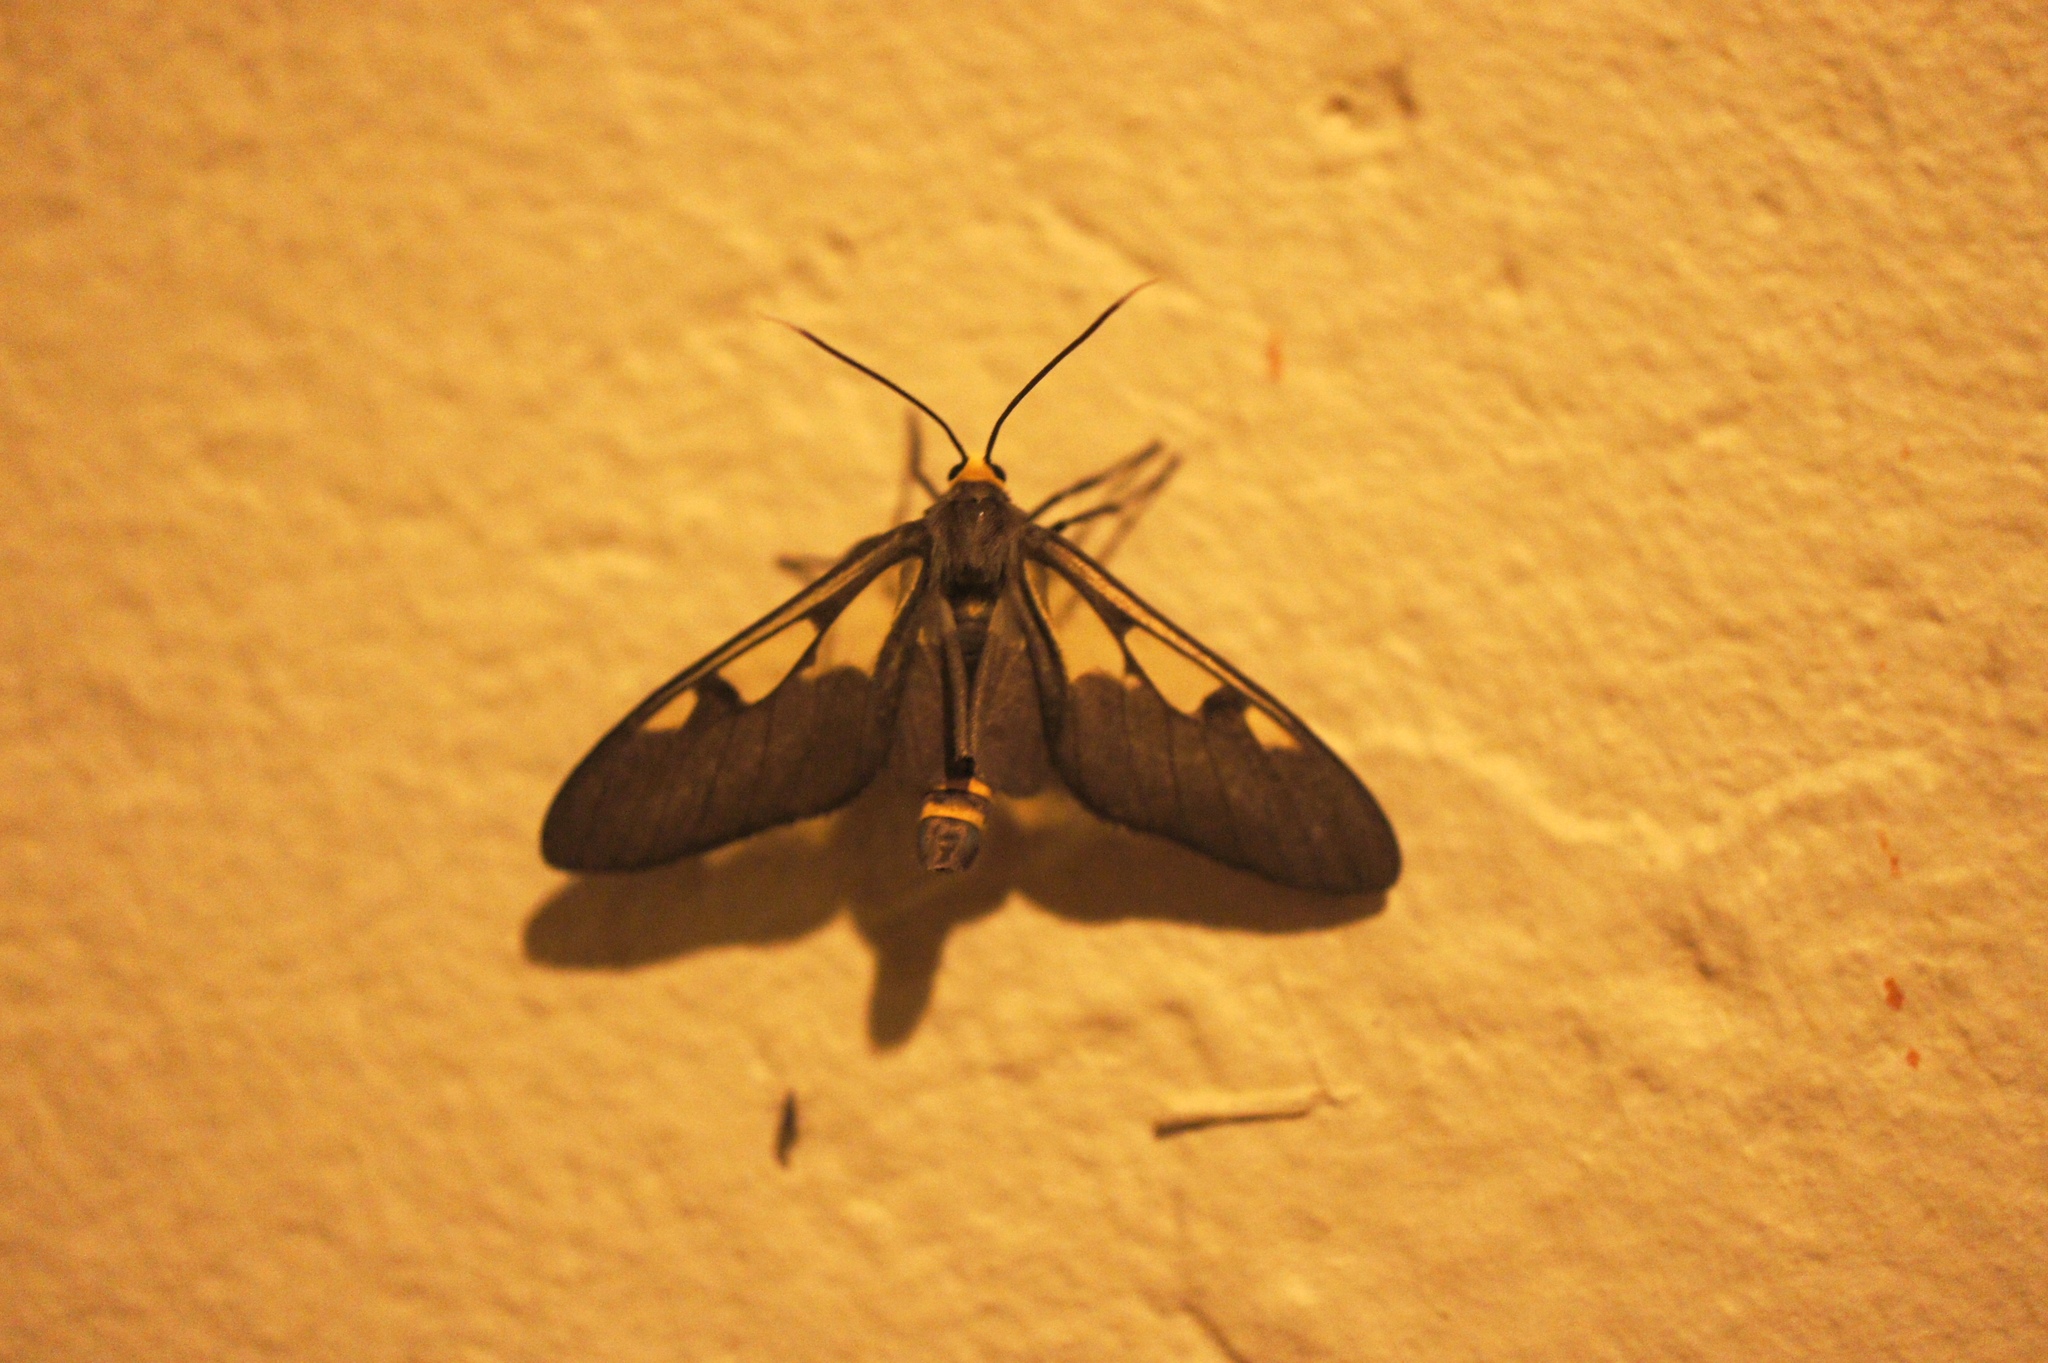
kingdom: Animalia
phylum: Arthropoda
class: Insecta
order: Lepidoptera
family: Erebidae
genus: Amata
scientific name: Amata trifascia
